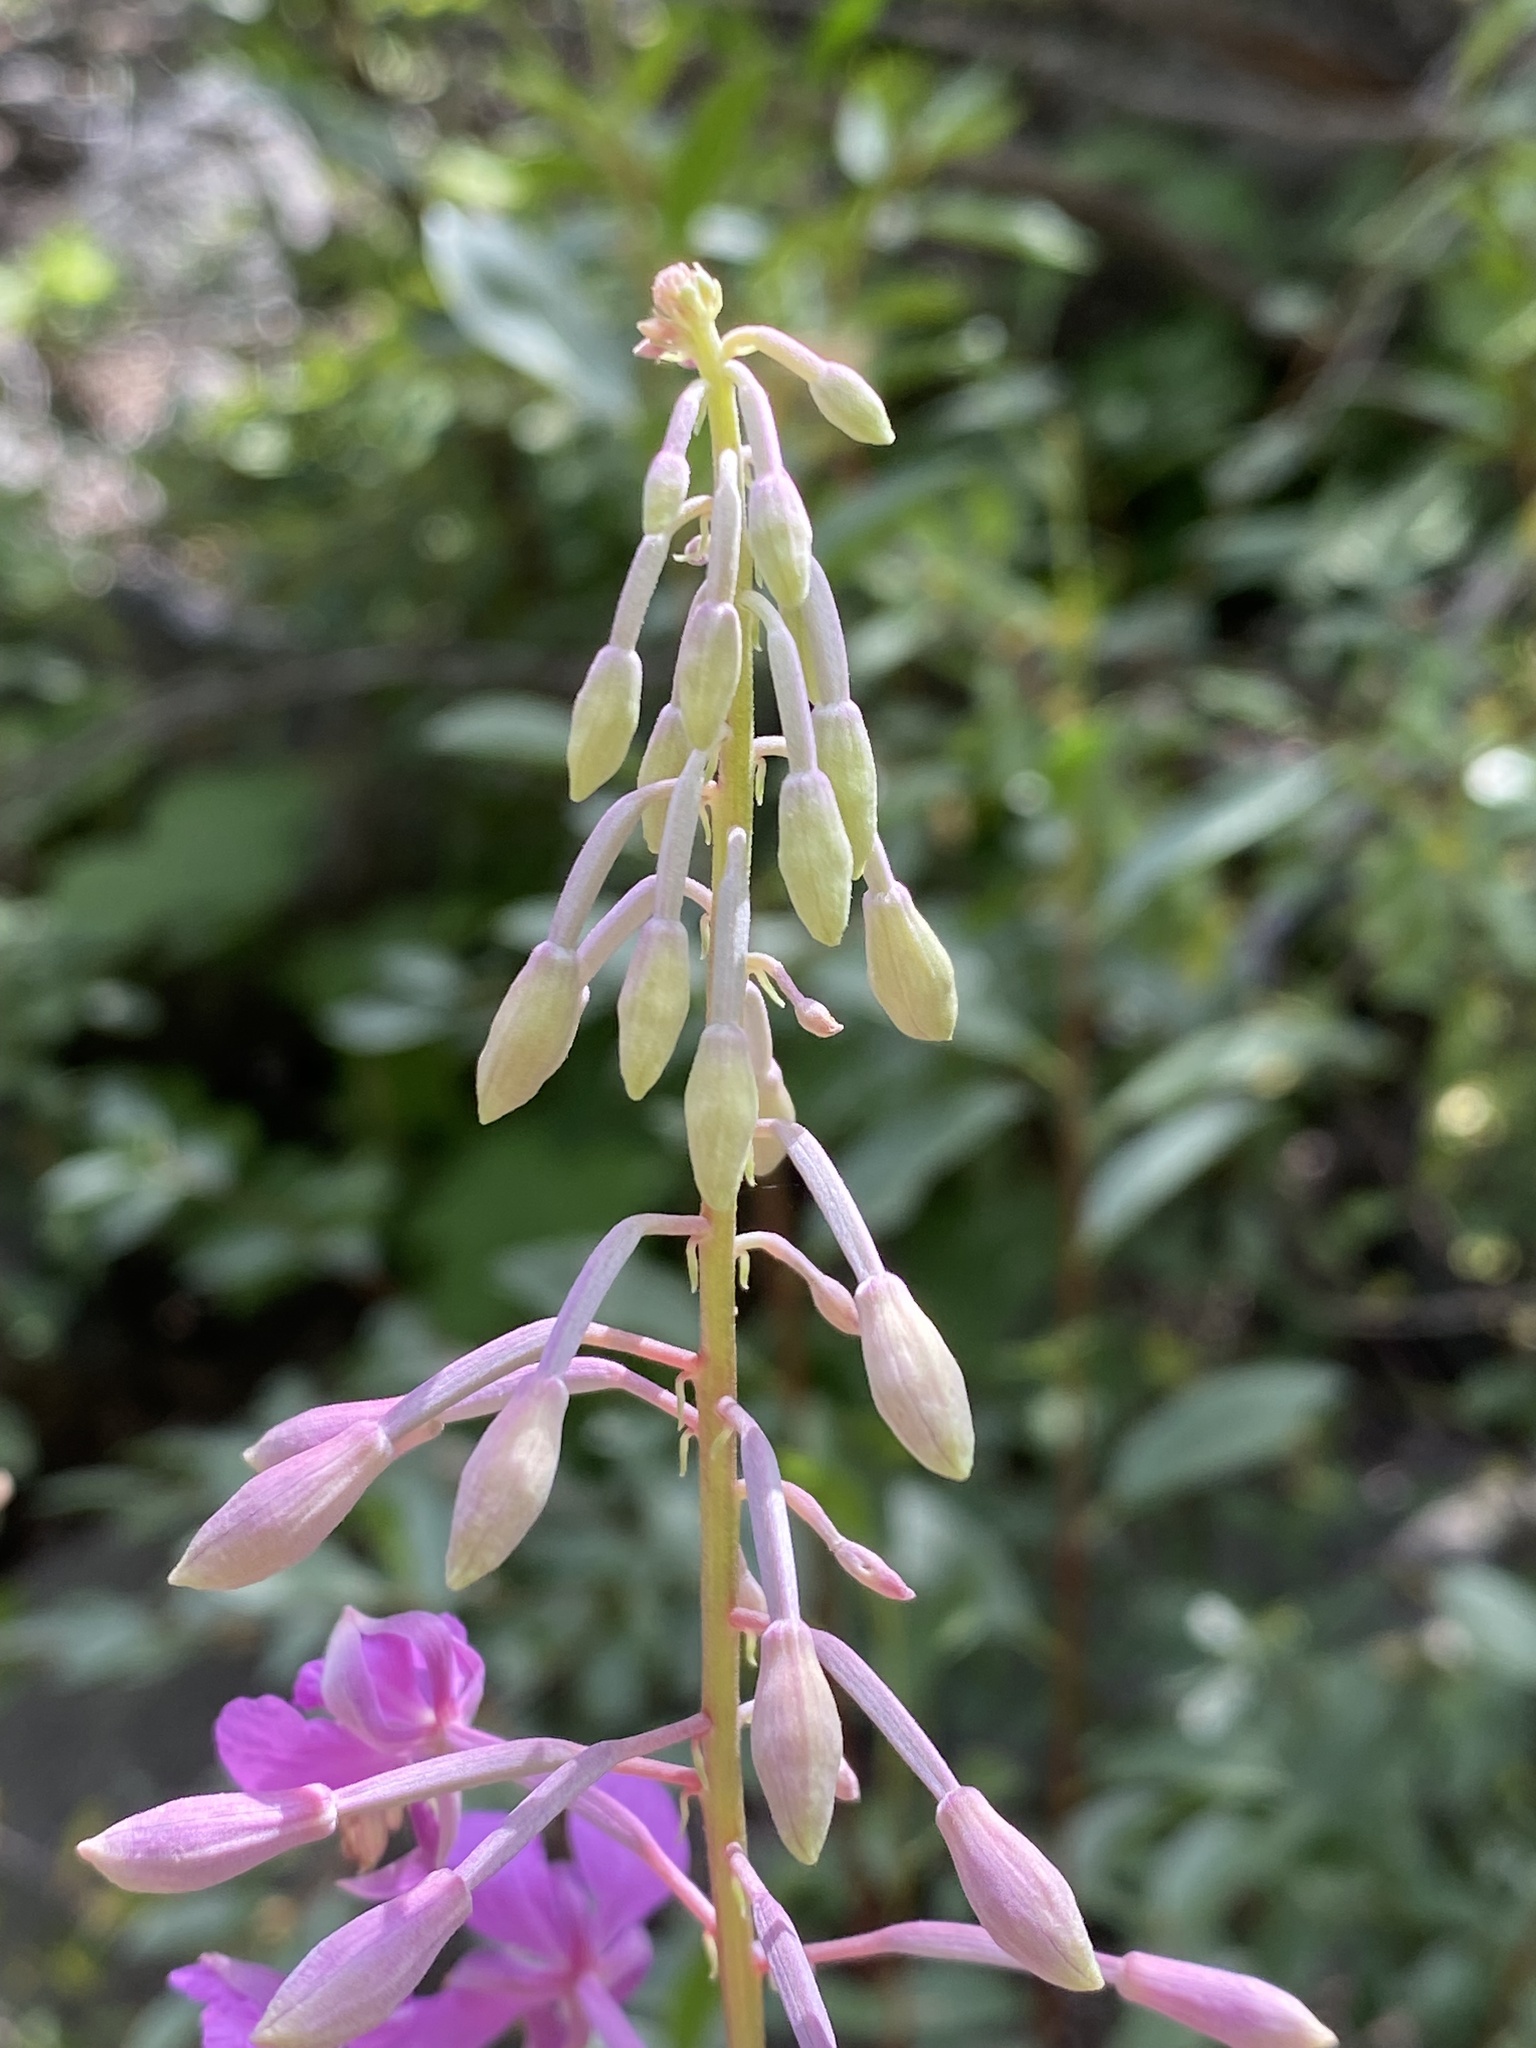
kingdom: Plantae
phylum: Tracheophyta
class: Magnoliopsida
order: Myrtales
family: Onagraceae
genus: Chamaenerion
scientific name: Chamaenerion angustifolium
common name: Fireweed
